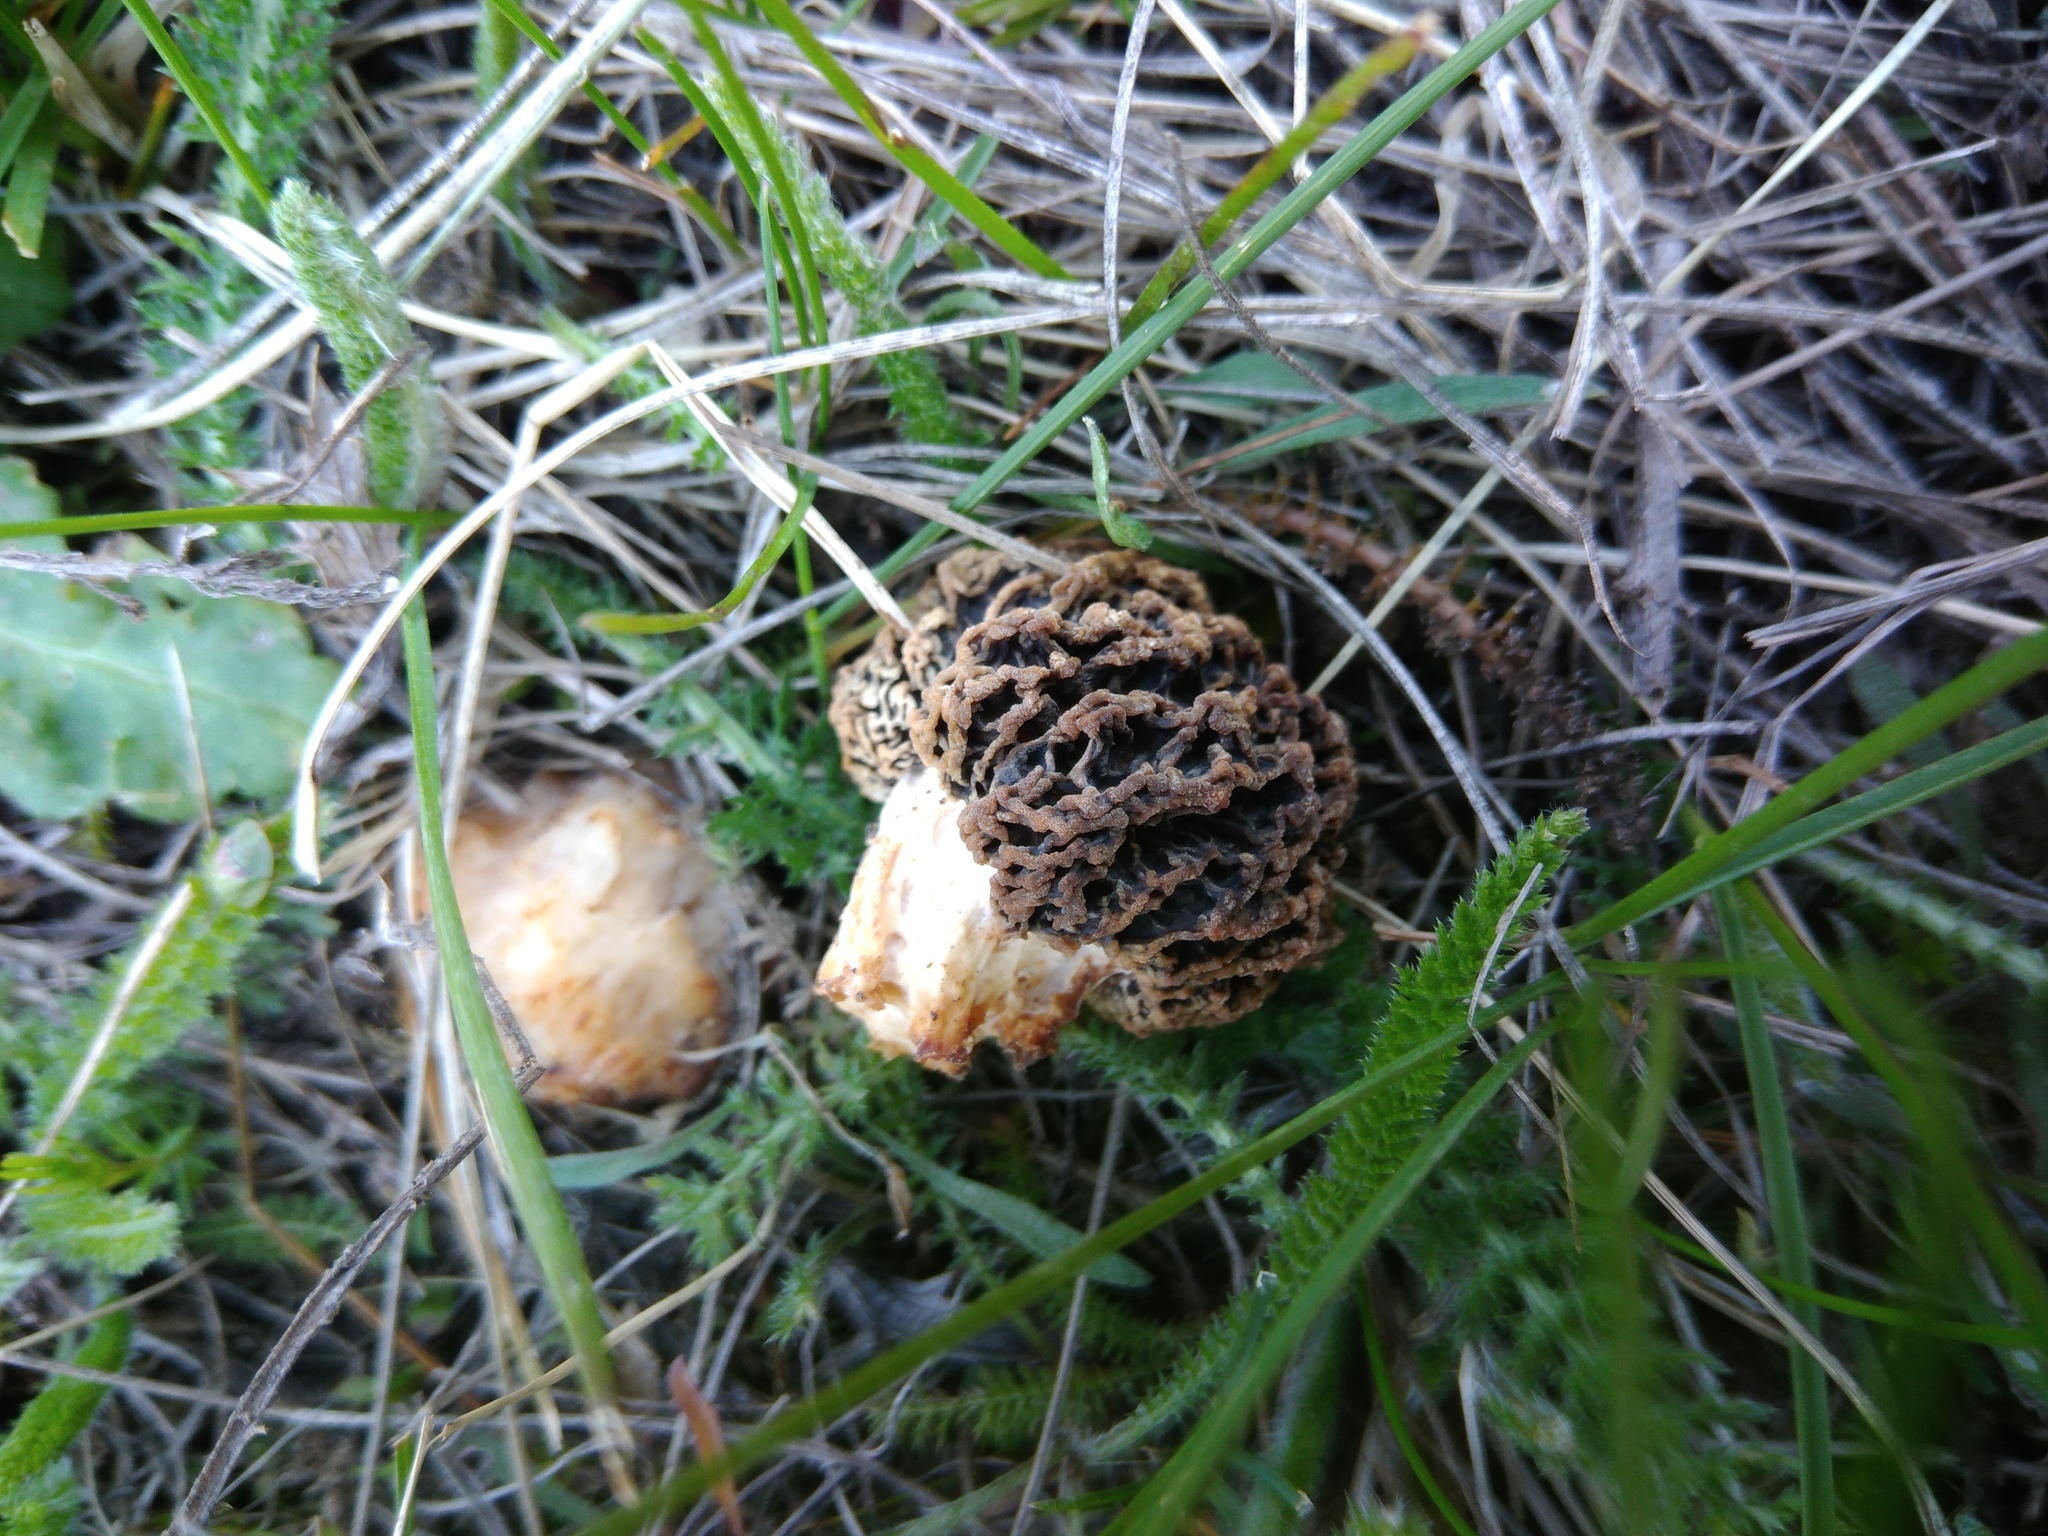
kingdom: Fungi
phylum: Ascomycota
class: Pezizomycetes
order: Pezizales
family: Morchellaceae
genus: Morchella
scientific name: Morchella steppicola
